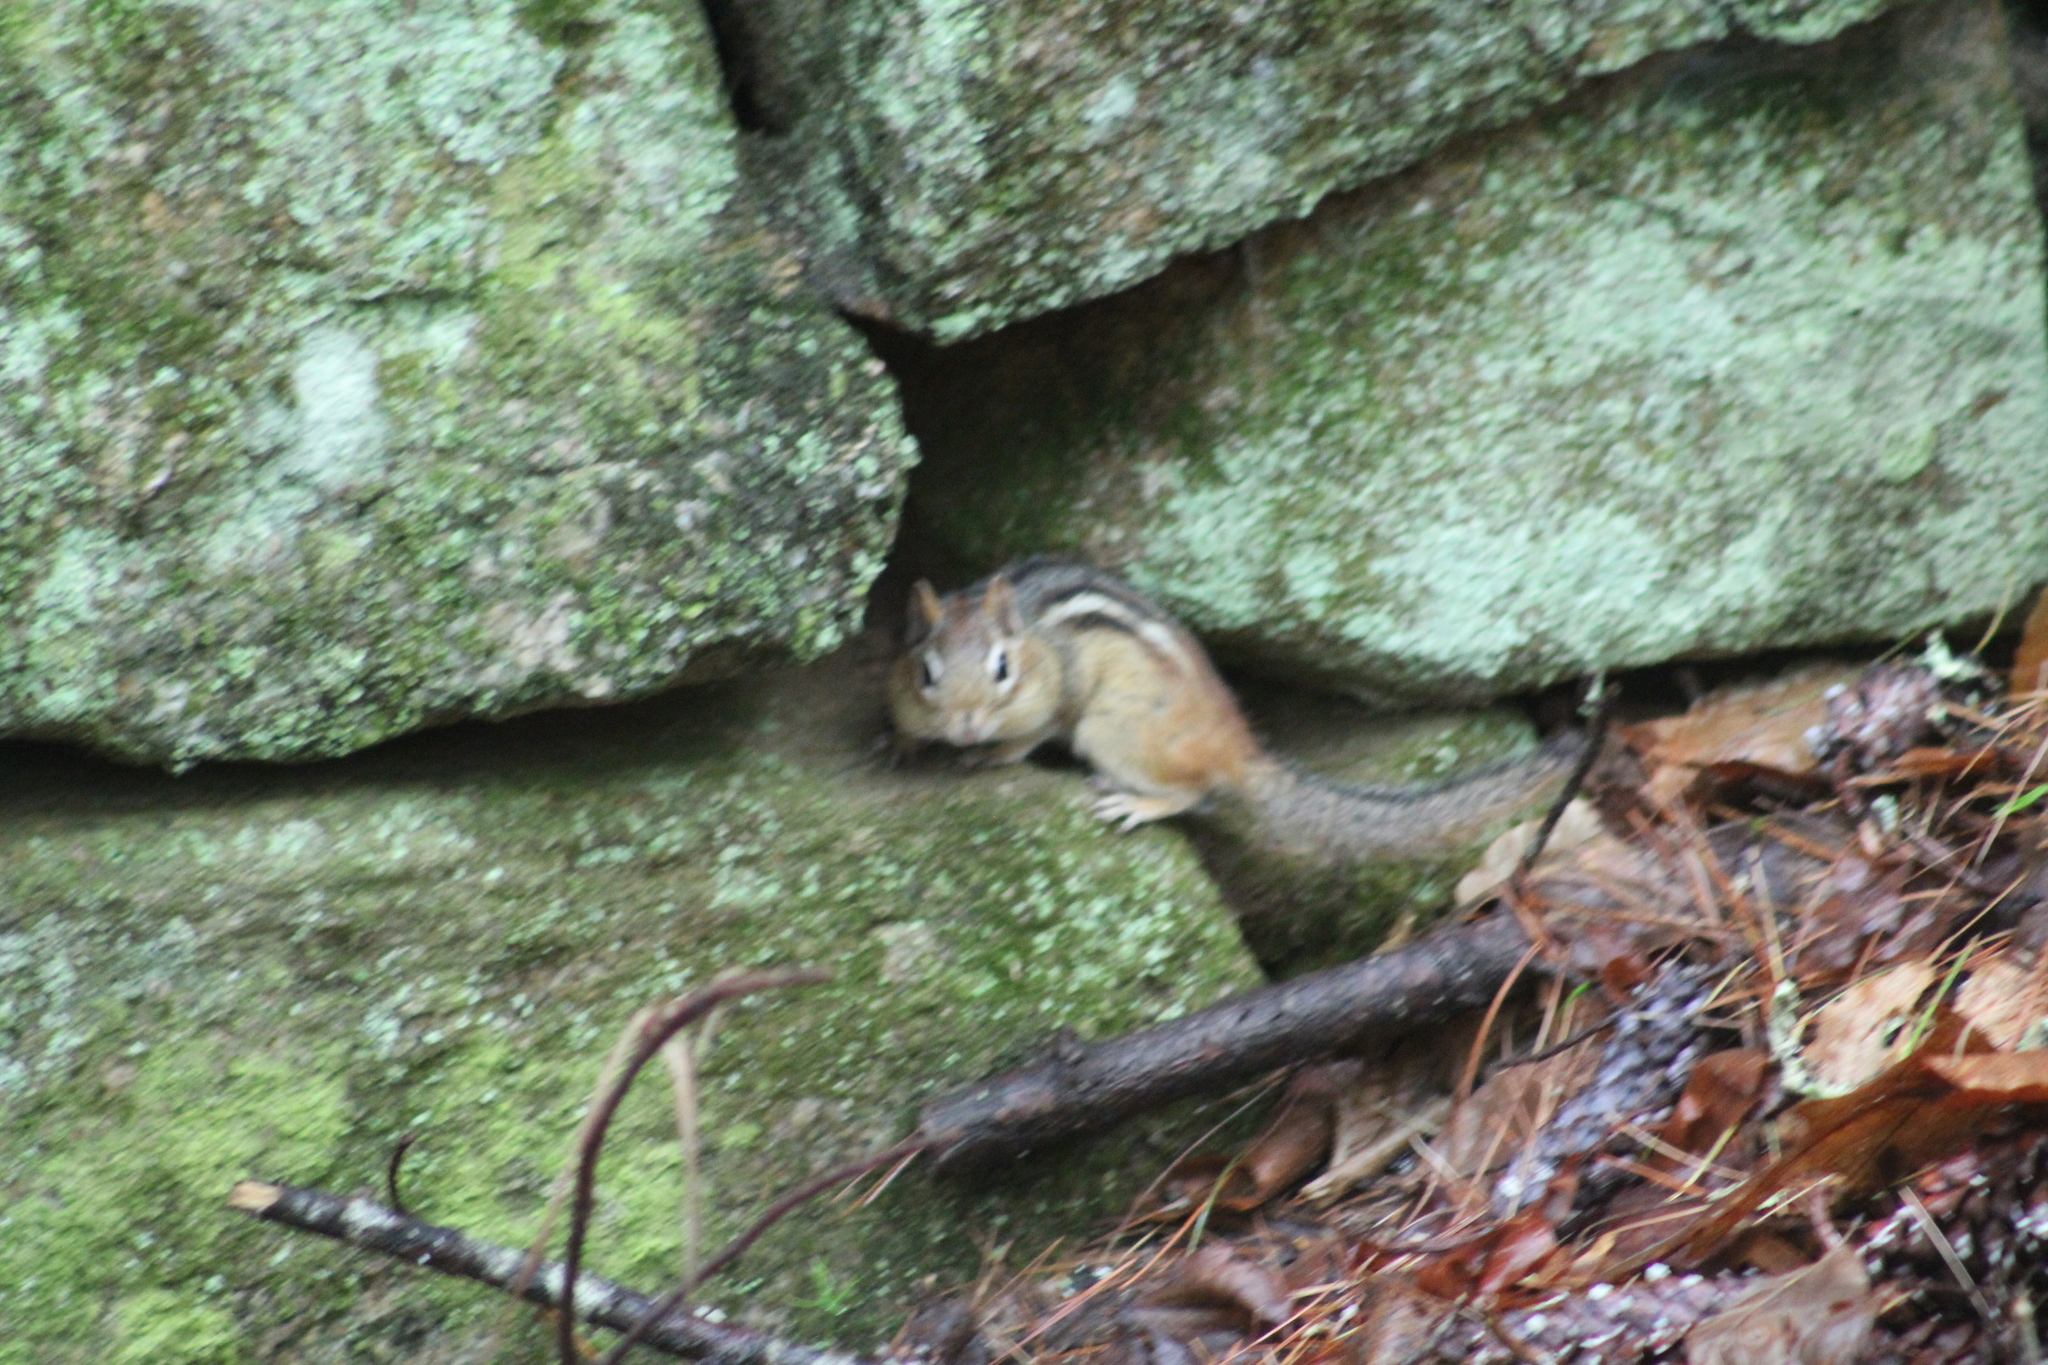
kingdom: Animalia
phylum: Chordata
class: Mammalia
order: Rodentia
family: Sciuridae
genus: Tamias
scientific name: Tamias striatus
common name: Eastern chipmunk
